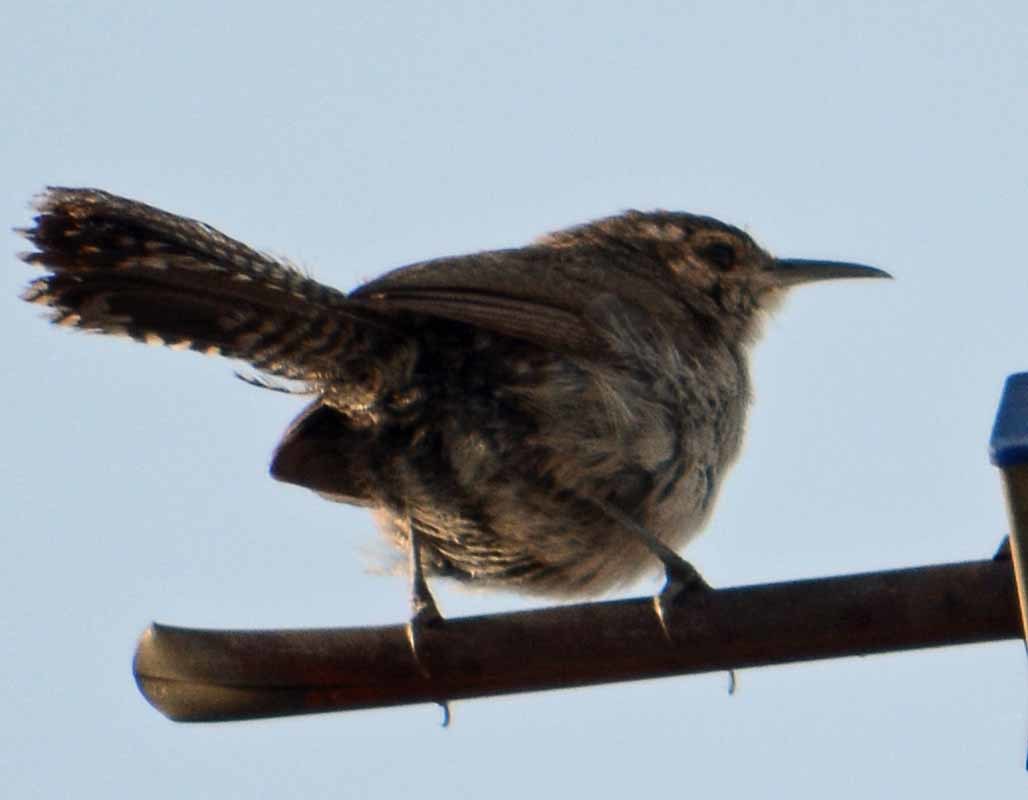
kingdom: Animalia
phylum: Chordata
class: Aves
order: Passeriformes
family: Troglodytidae
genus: Thryomanes
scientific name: Thryomanes bewickii
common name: Bewick's wren
